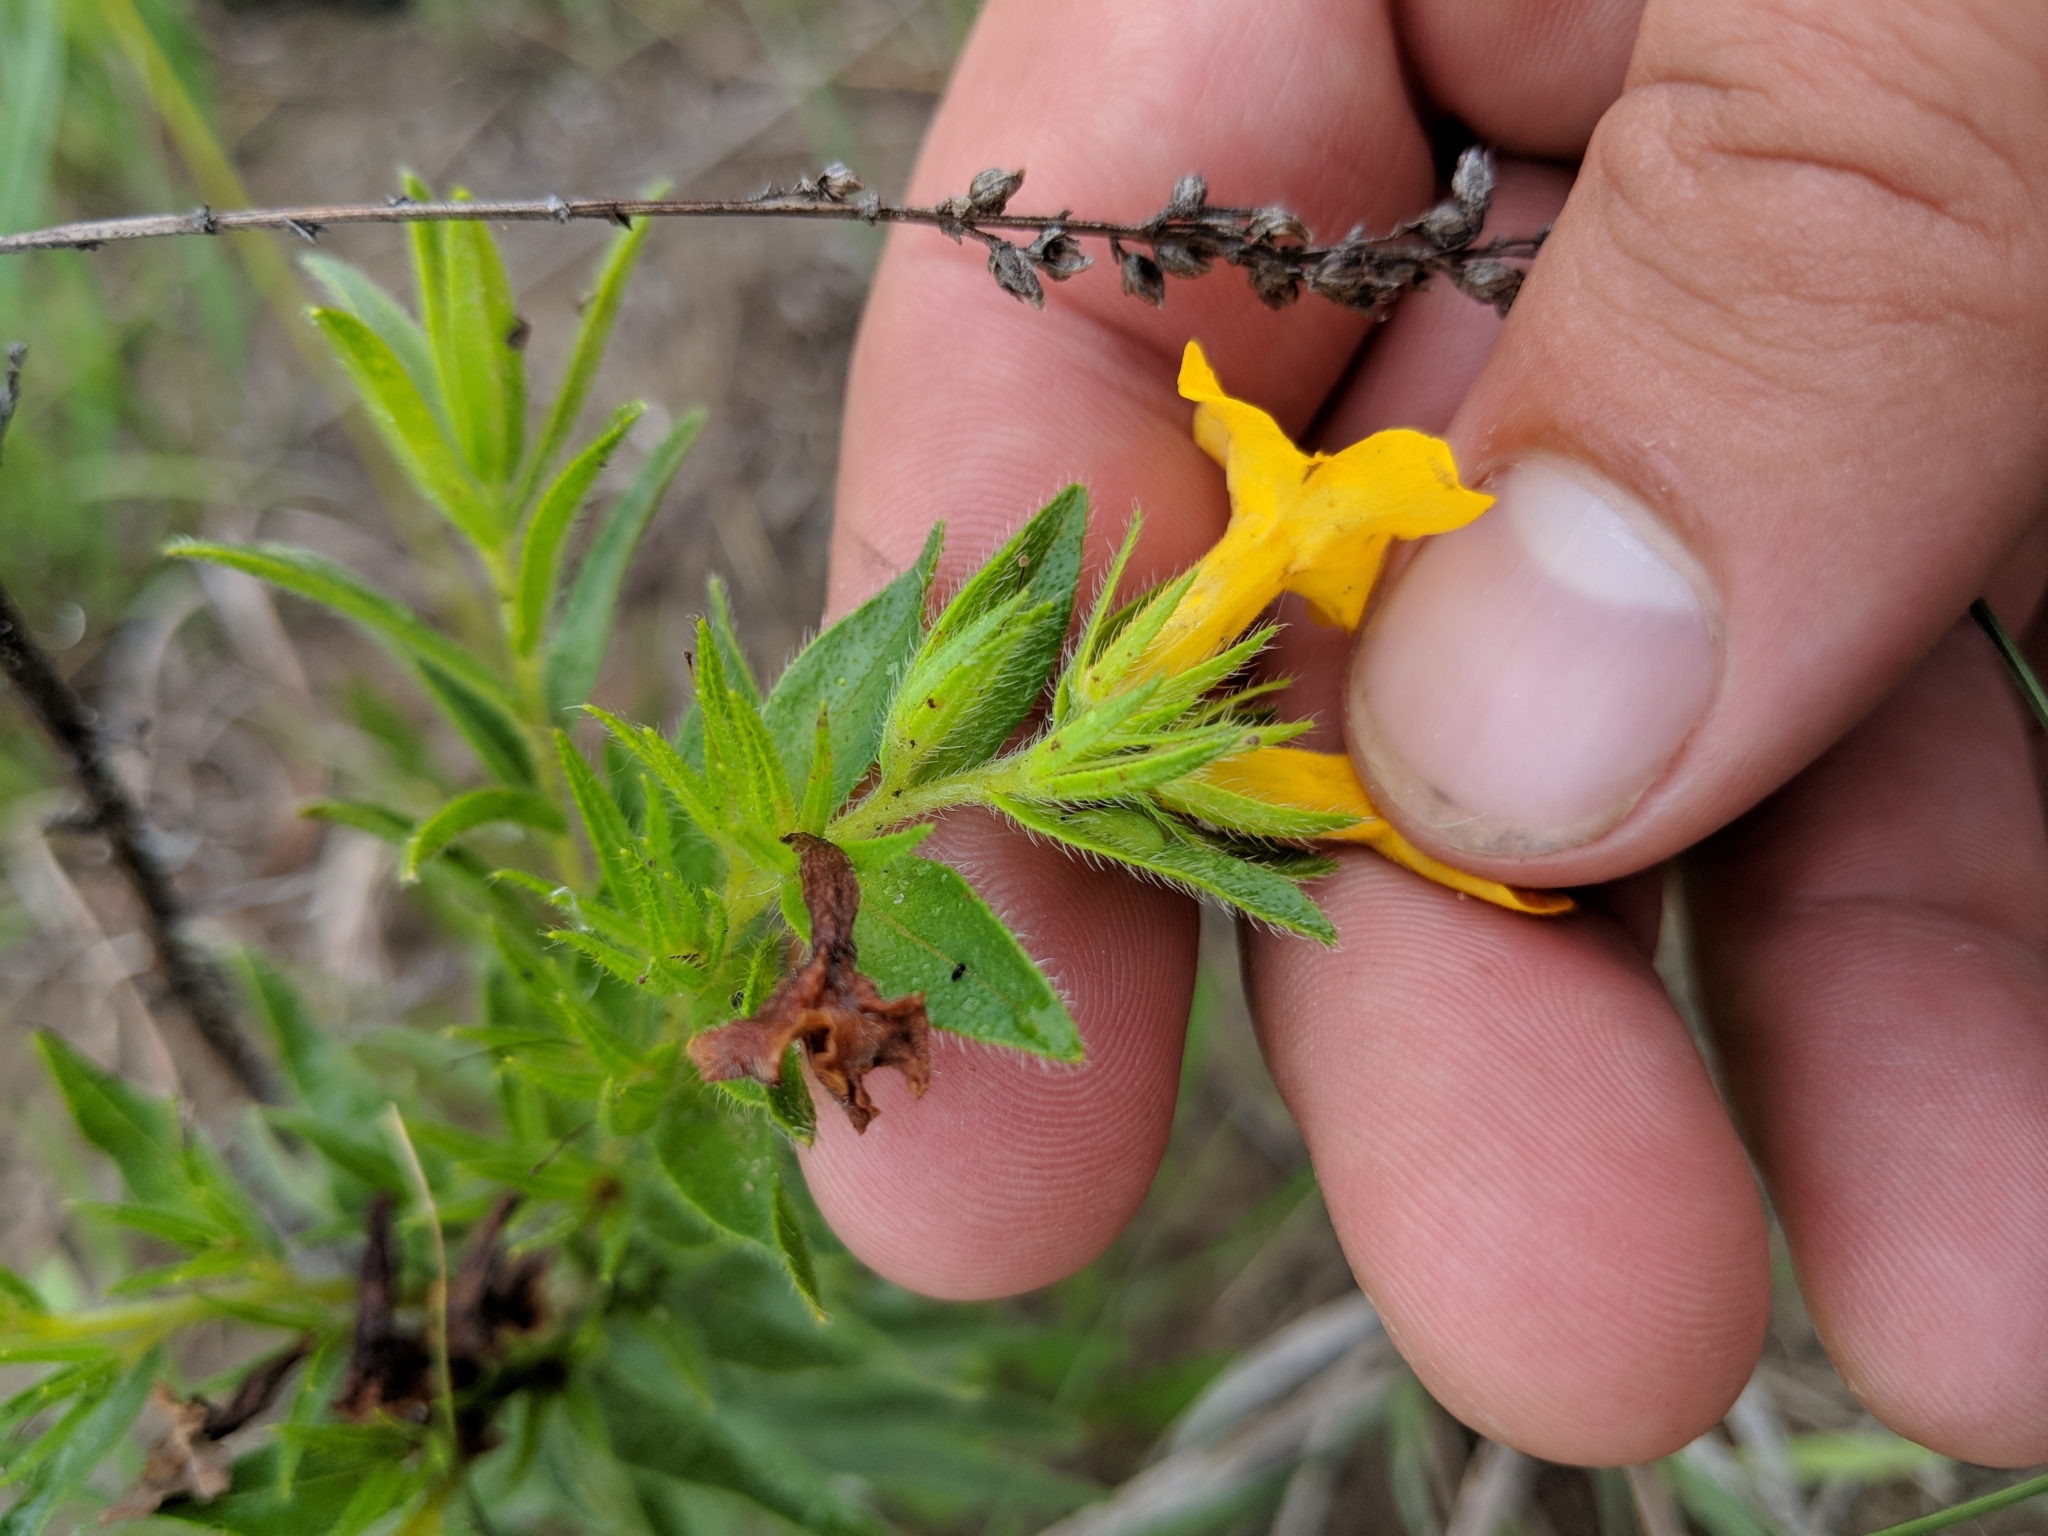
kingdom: Plantae
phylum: Tracheophyta
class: Magnoliopsida
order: Boraginales
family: Boraginaceae
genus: Lithospermum
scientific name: Lithospermum caroliniense
